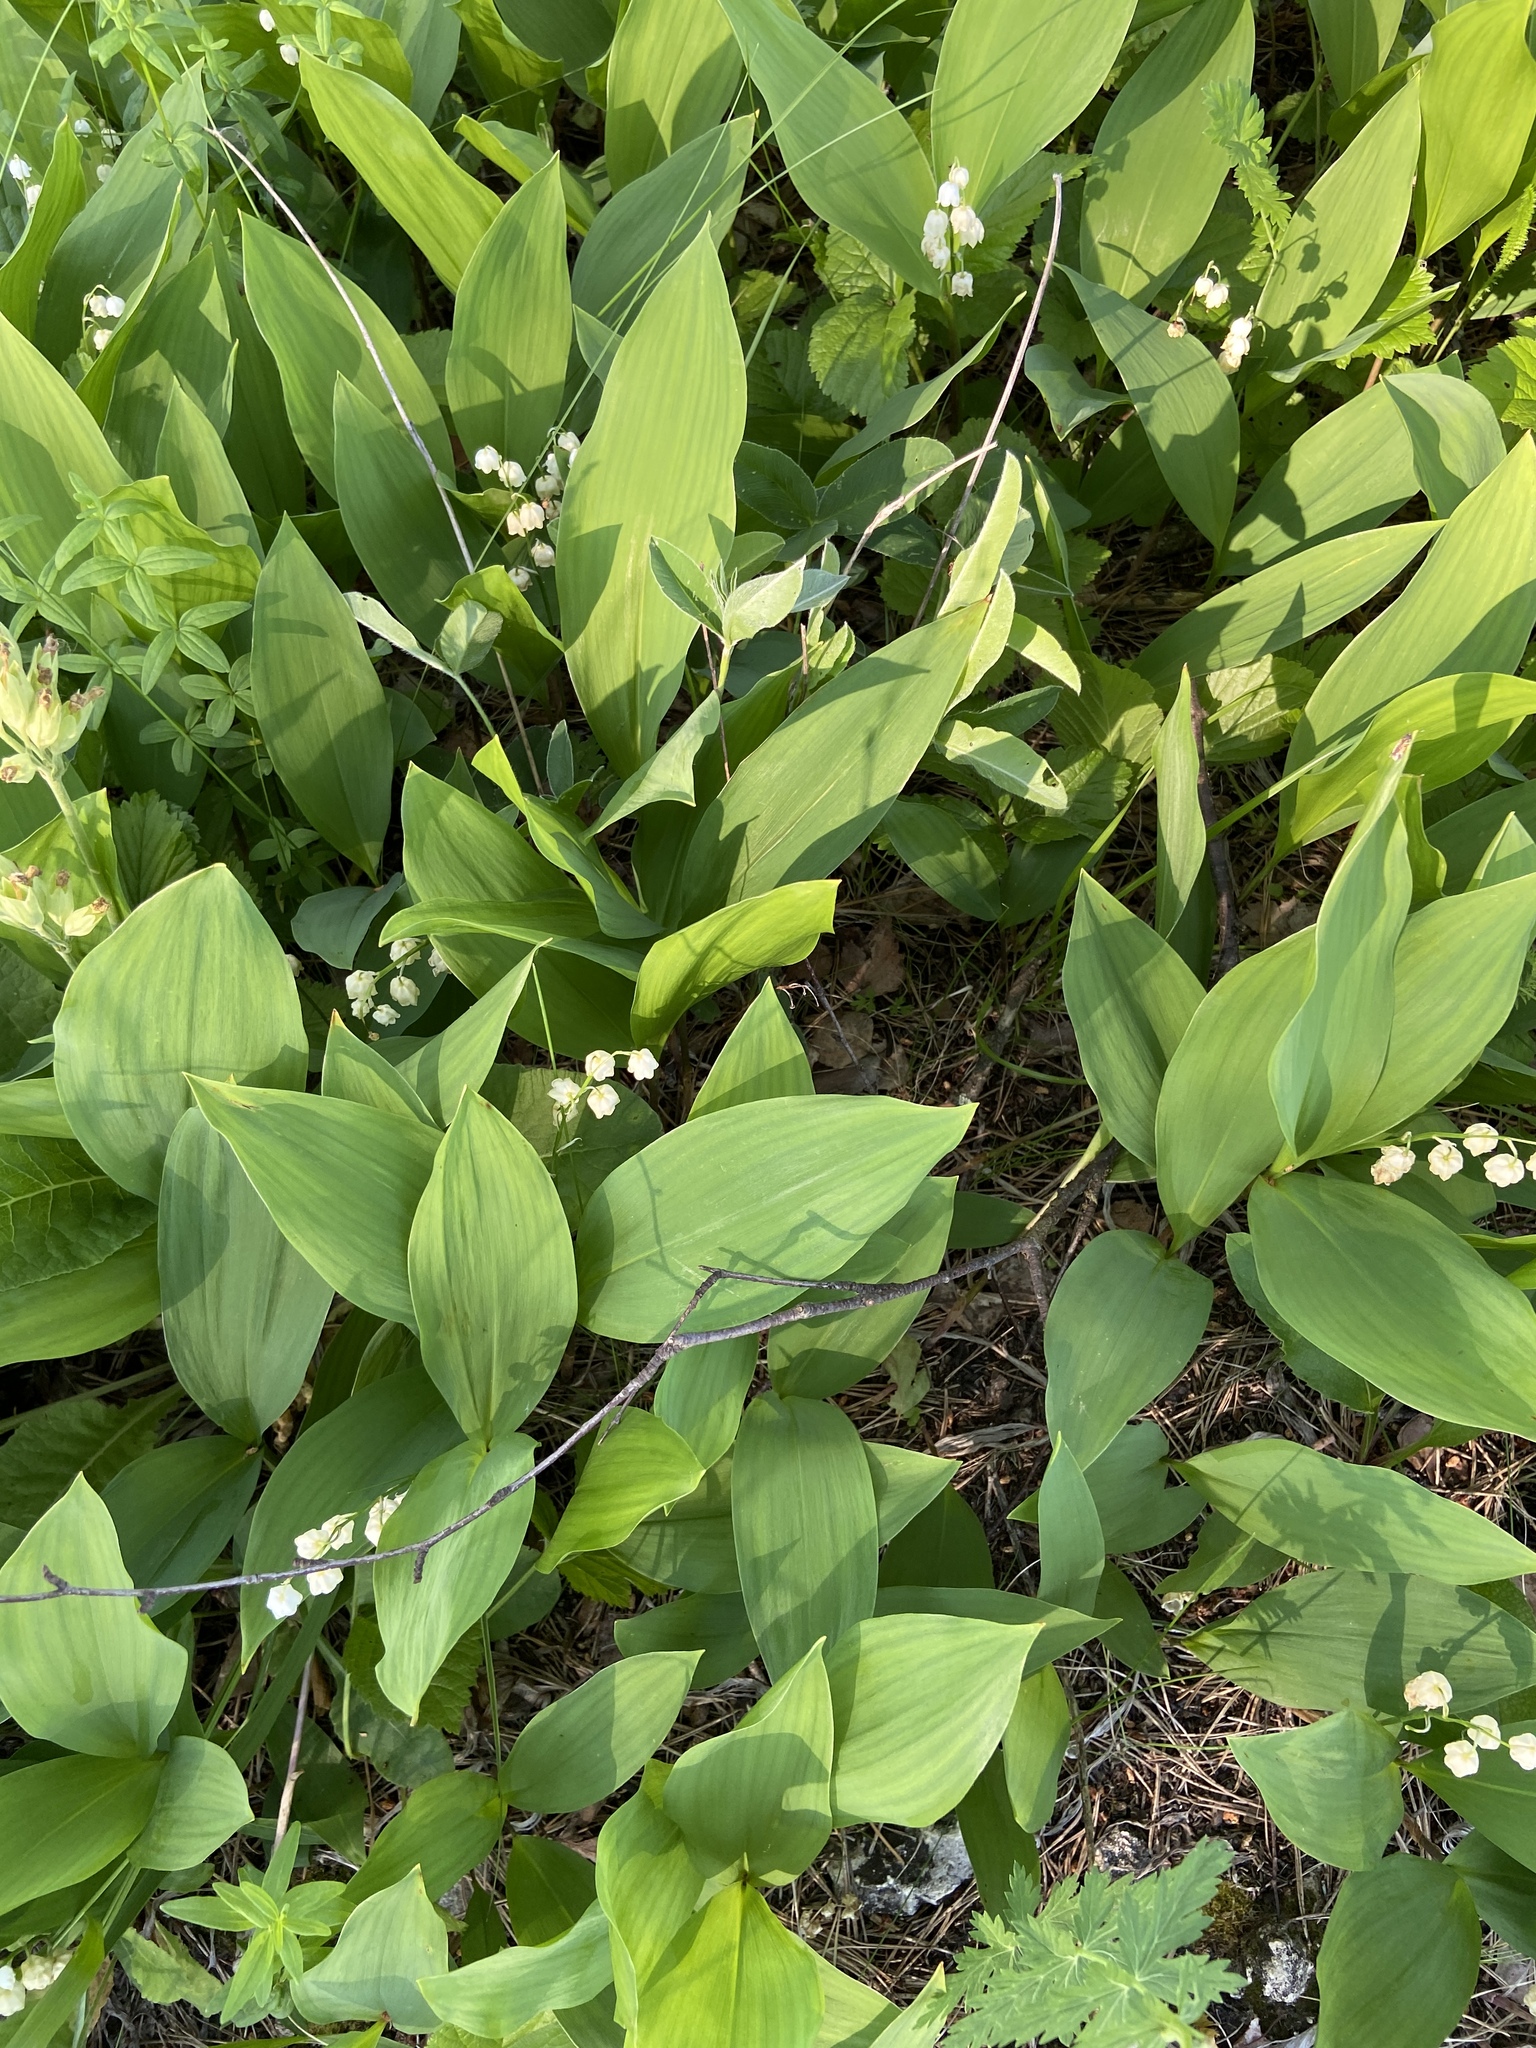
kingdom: Plantae
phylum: Tracheophyta
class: Liliopsida
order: Asparagales
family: Asparagaceae
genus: Convallaria
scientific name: Convallaria majalis
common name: Lily-of-the-valley
